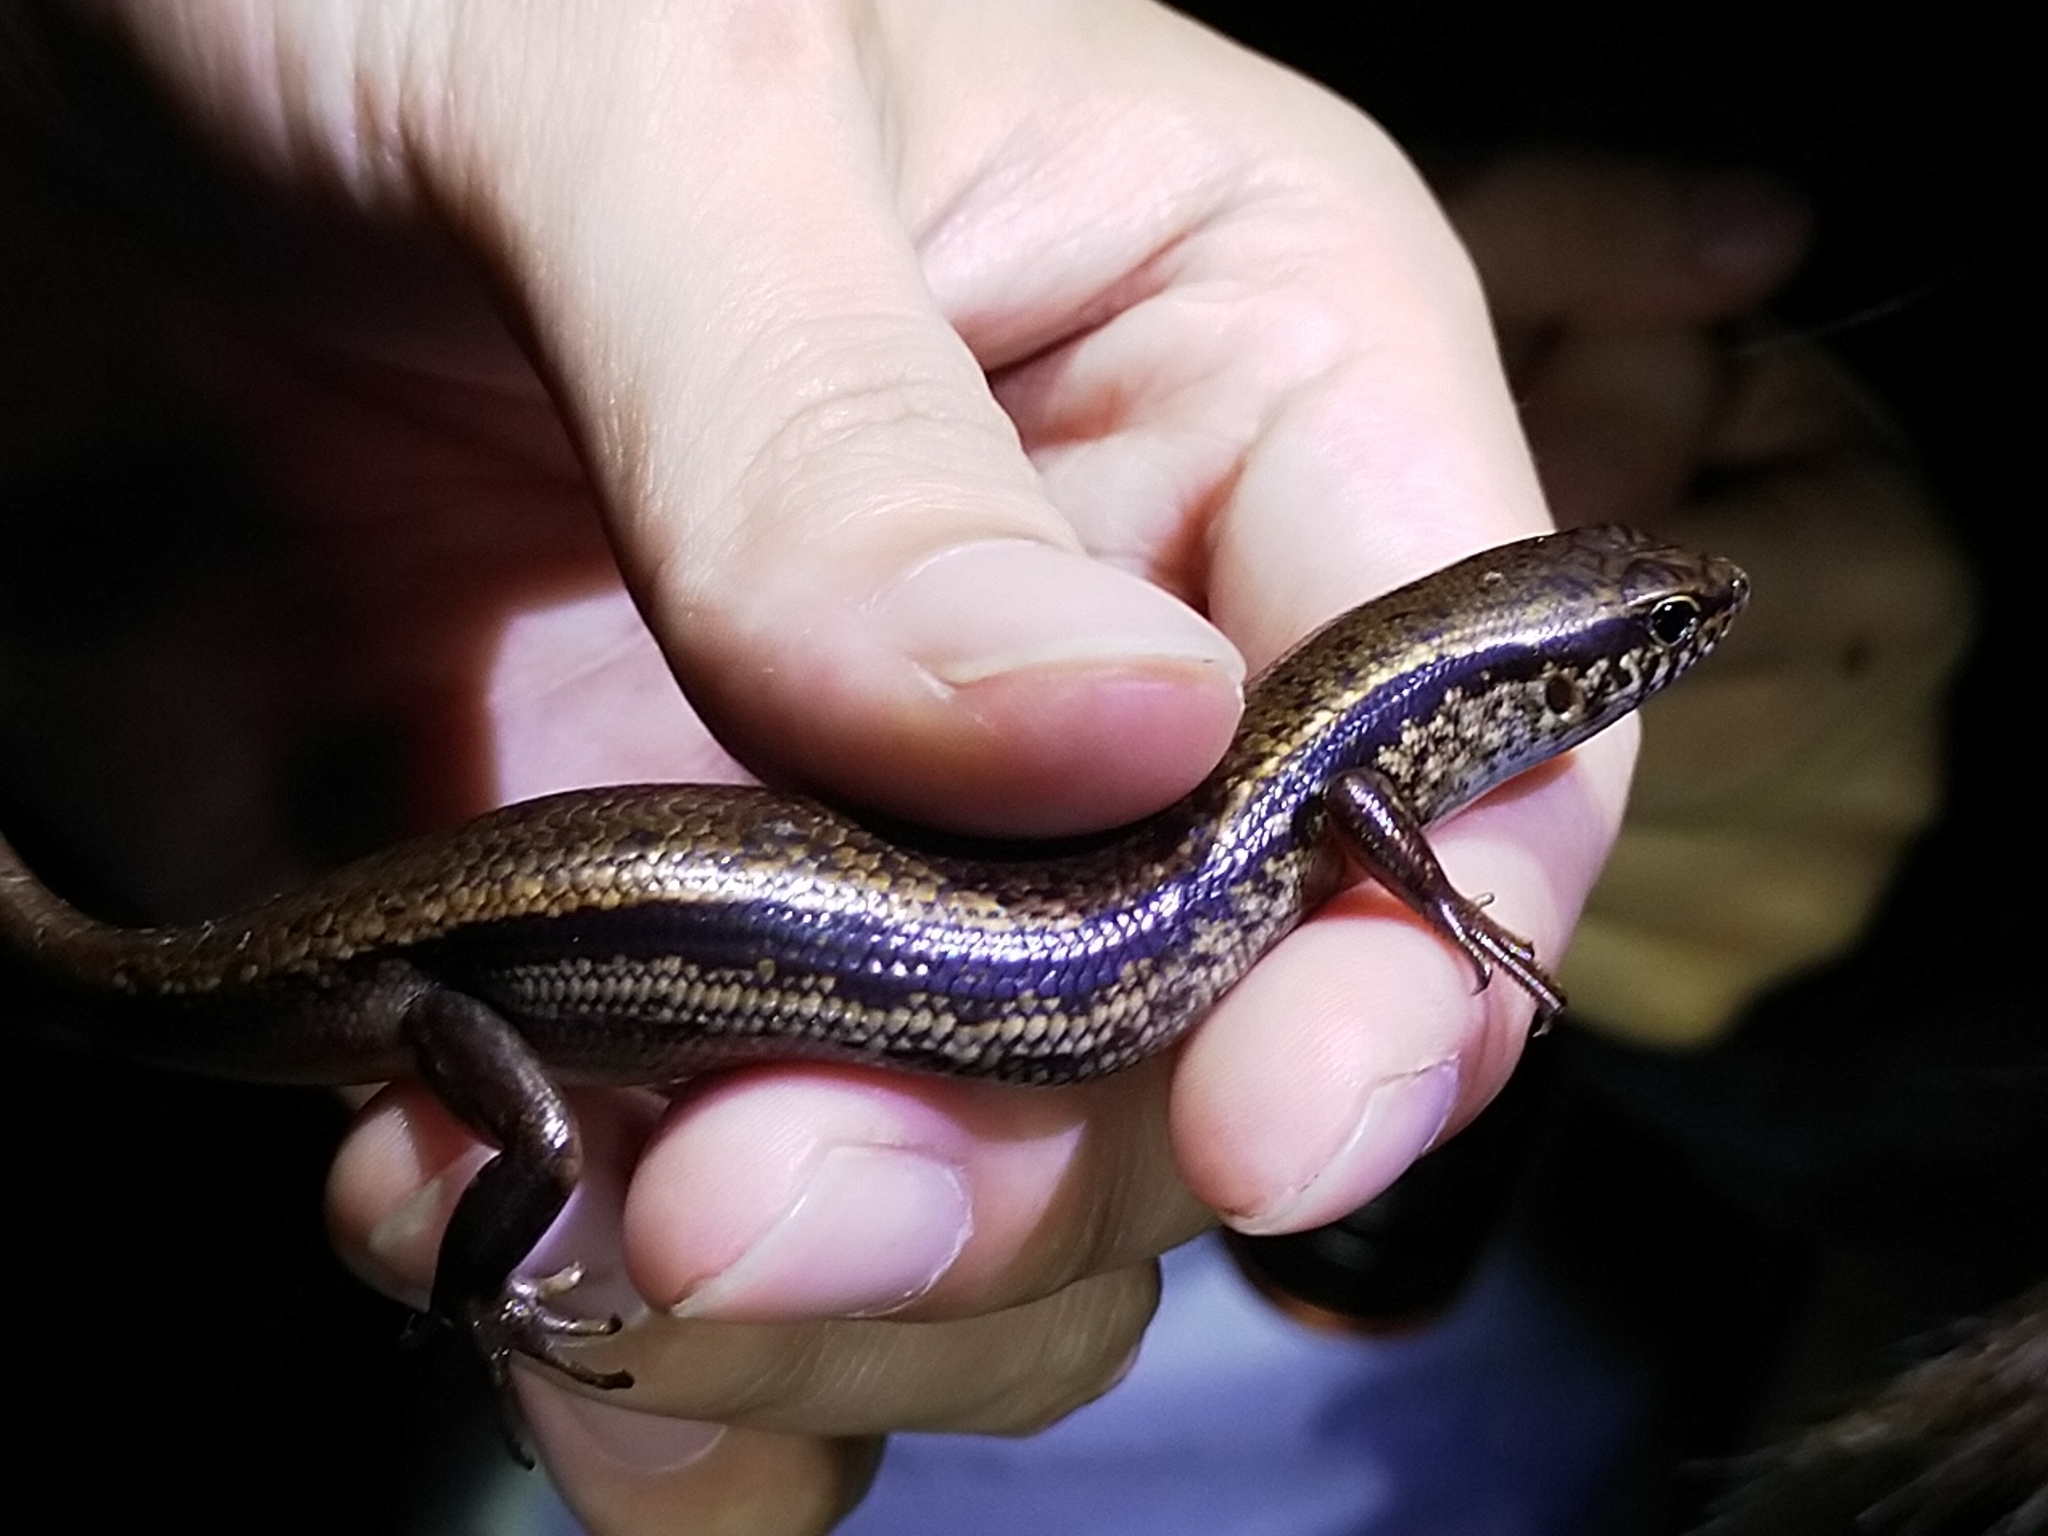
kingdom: Animalia
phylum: Chordata
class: Squamata
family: Scincidae
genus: Sphenomorphus
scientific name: Sphenomorphus indicus
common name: Himalayan forest skink
